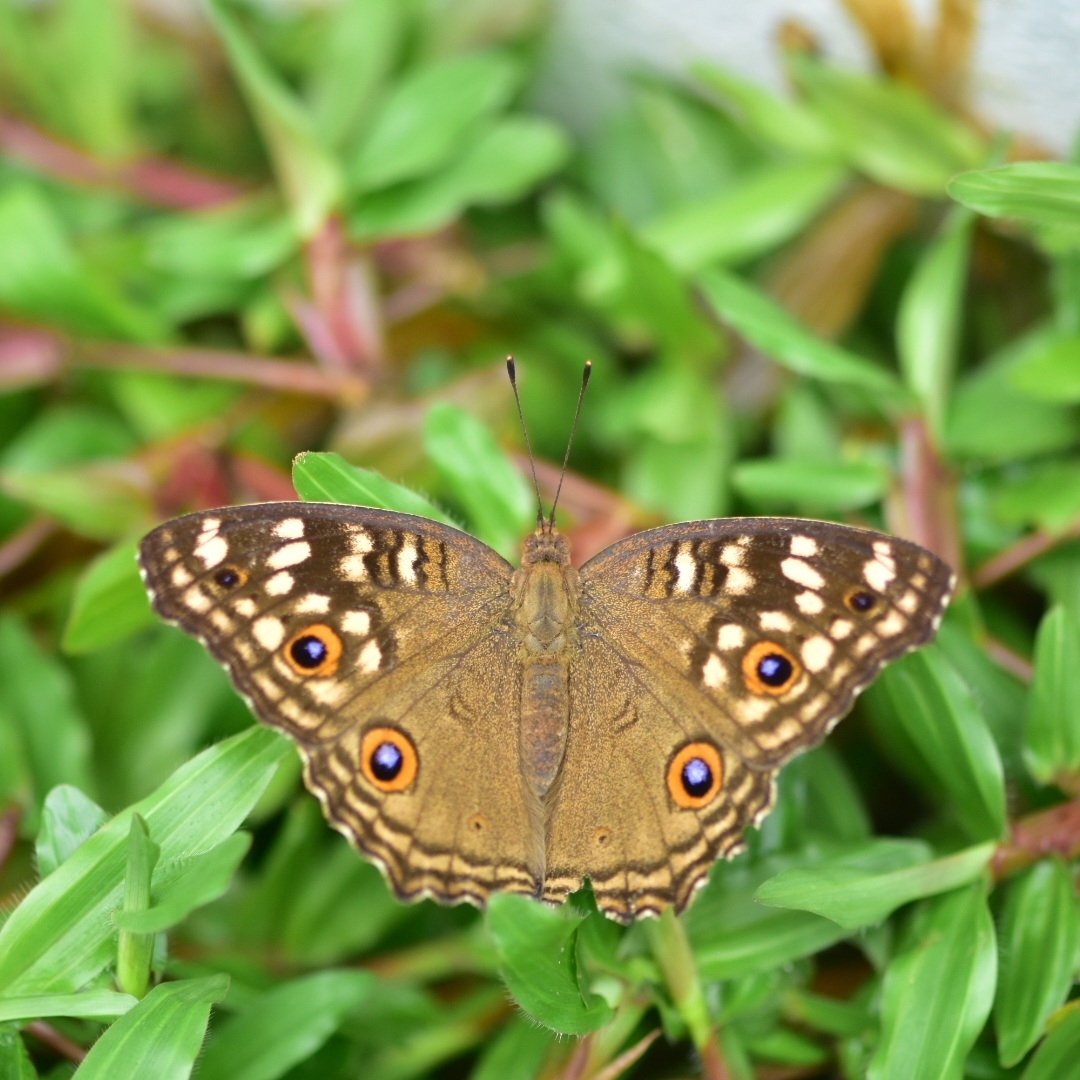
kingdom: Animalia
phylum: Arthropoda
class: Insecta
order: Lepidoptera
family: Nymphalidae
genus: Junonia
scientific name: Junonia lemonias
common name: Lemon pansy
